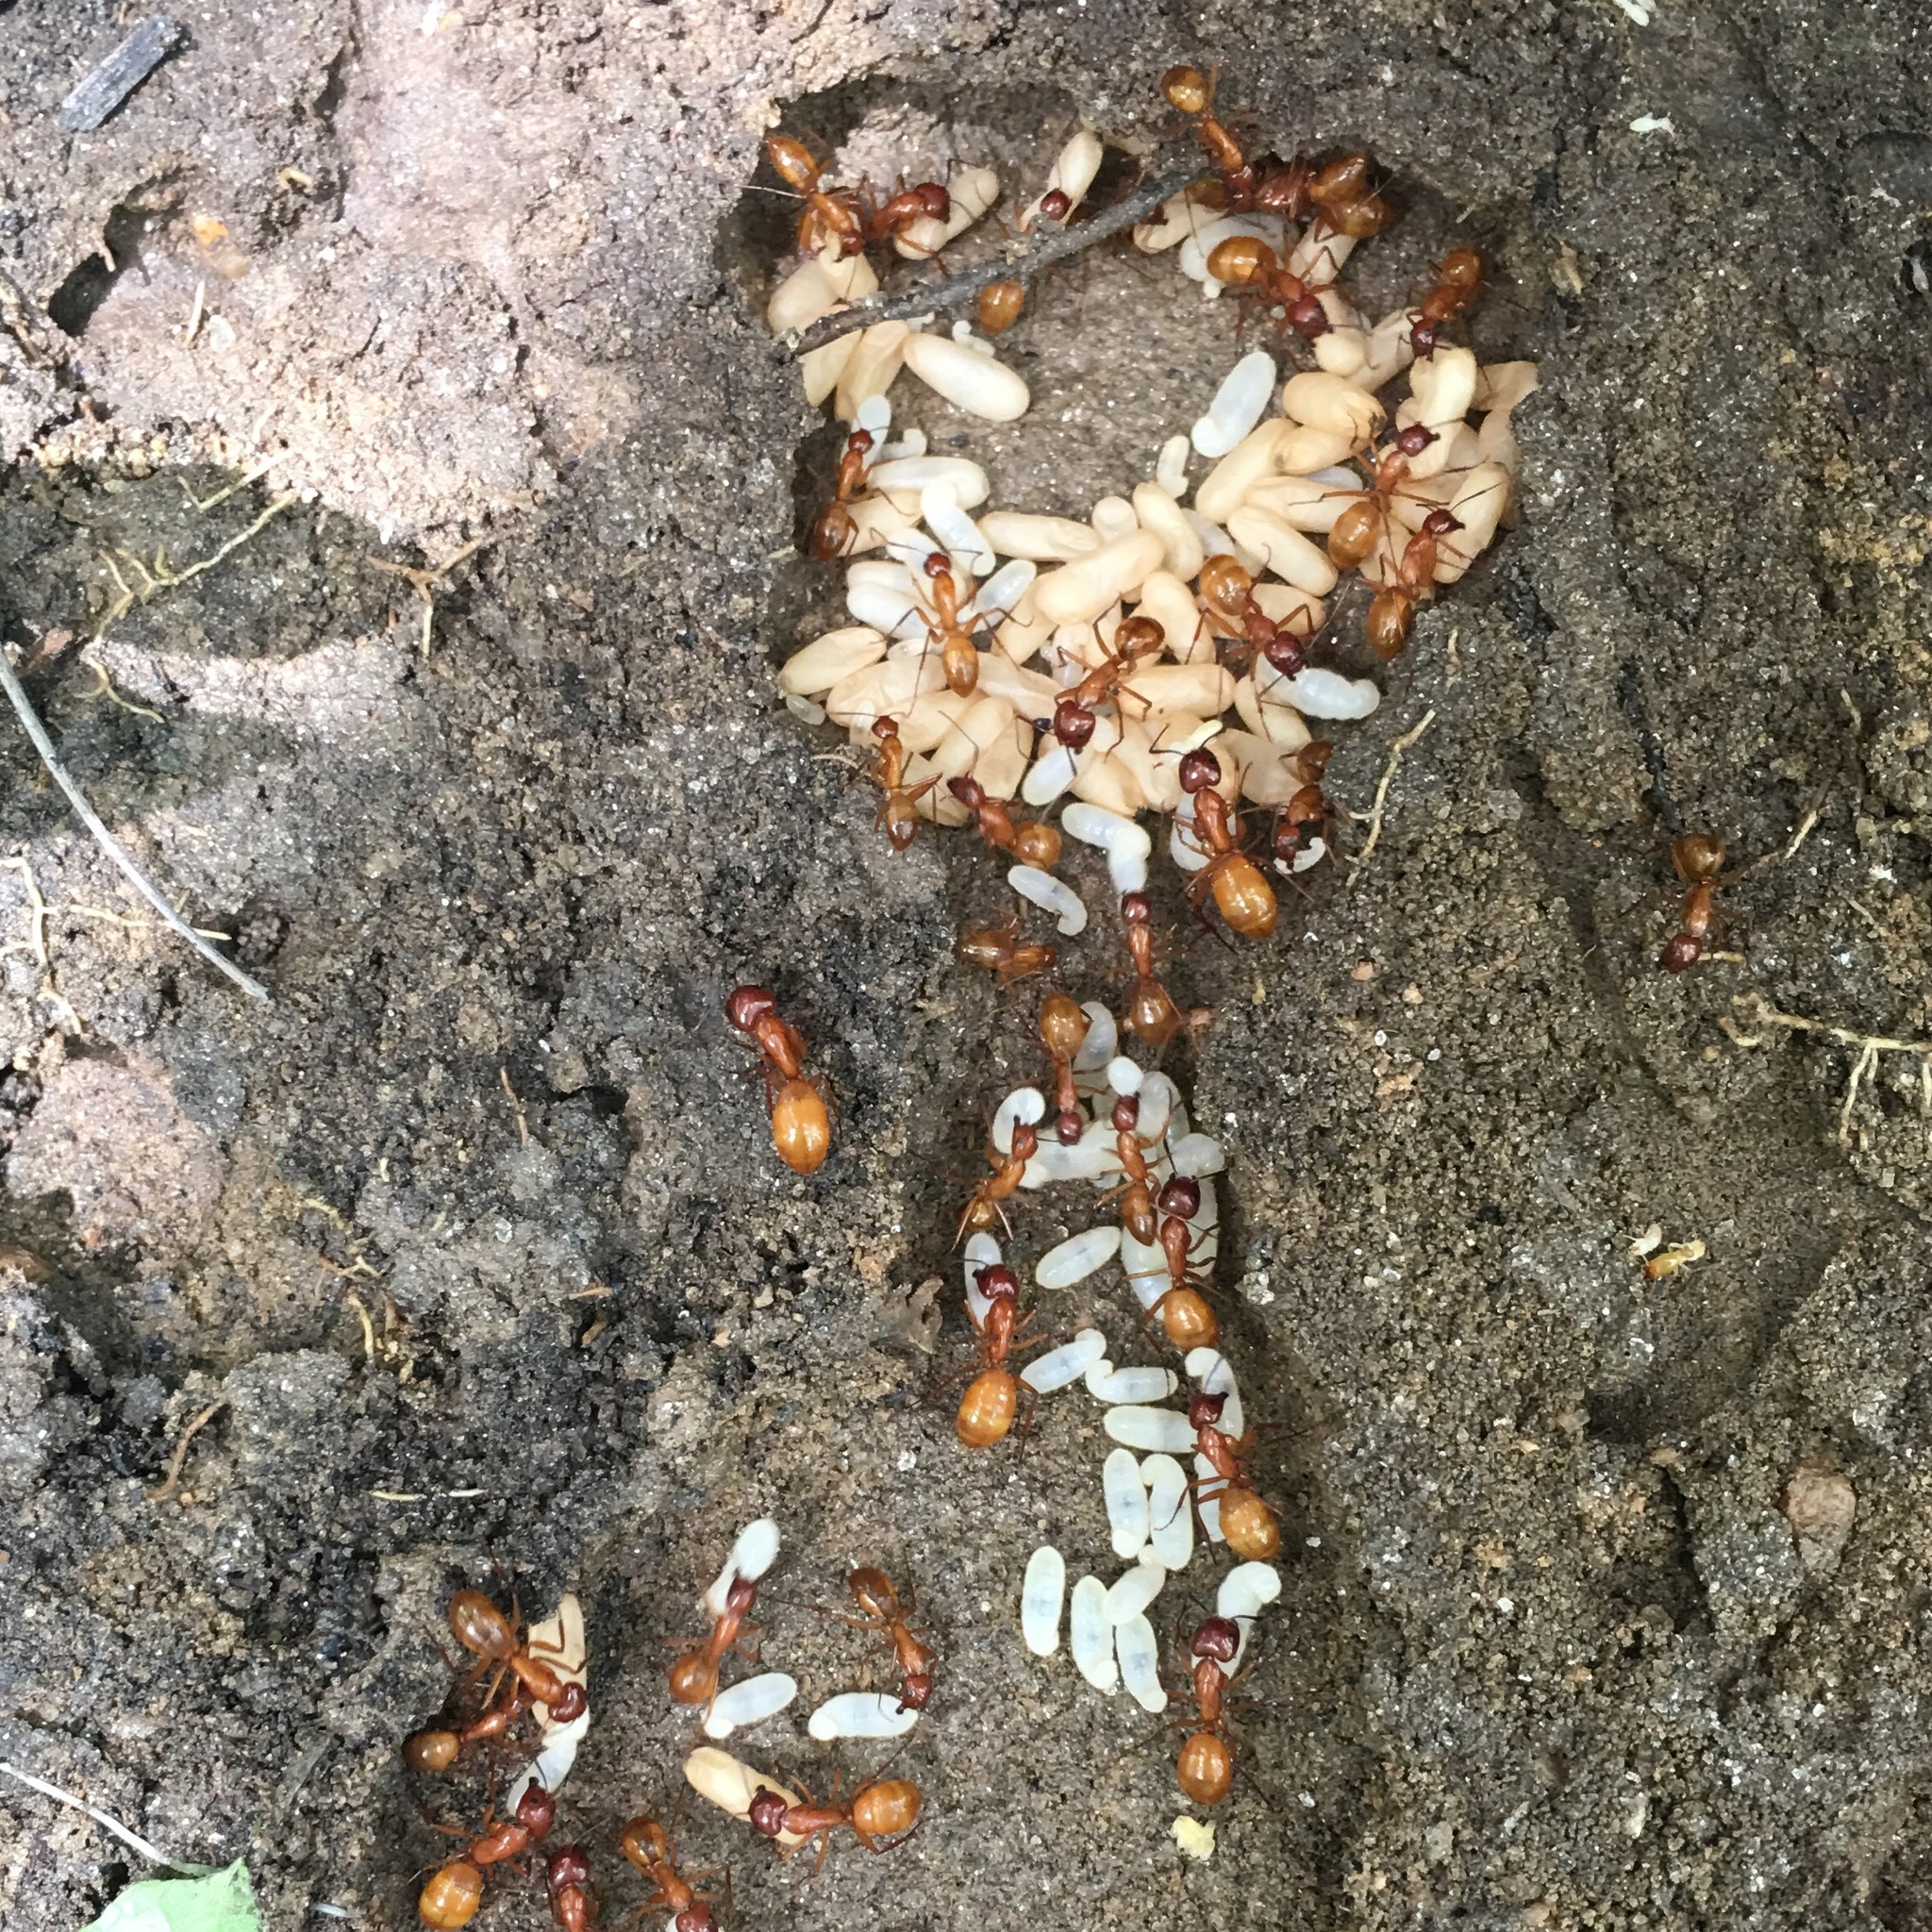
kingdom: Animalia
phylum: Arthropoda
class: Insecta
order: Hymenoptera
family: Formicidae
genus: Camponotus
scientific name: Camponotus castaneus
